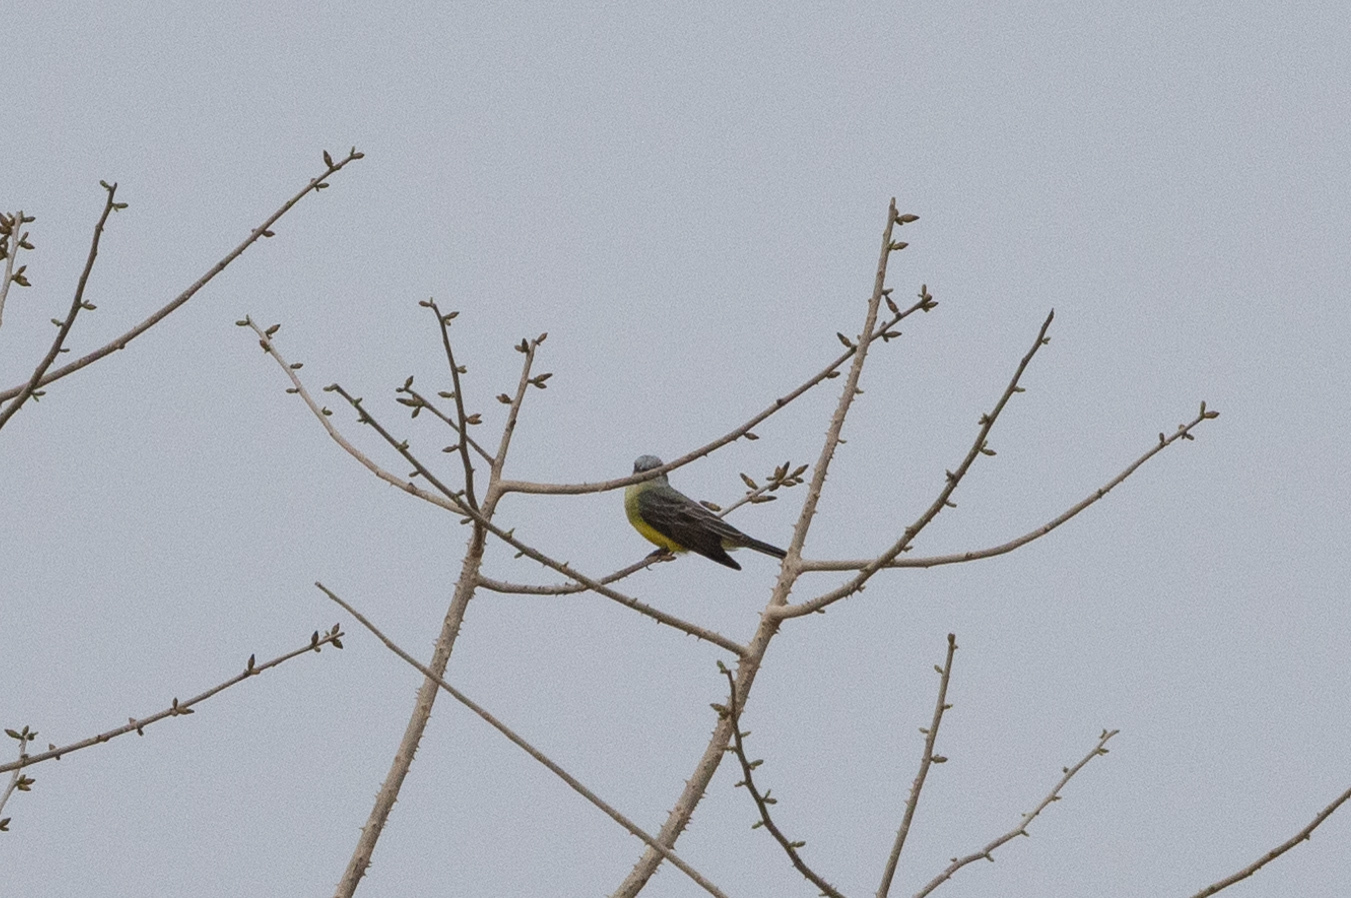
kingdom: Animalia
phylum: Chordata
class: Aves
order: Passeriformes
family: Tyrannidae
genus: Tyrannus
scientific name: Tyrannus melancholicus
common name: Tropical kingbird
